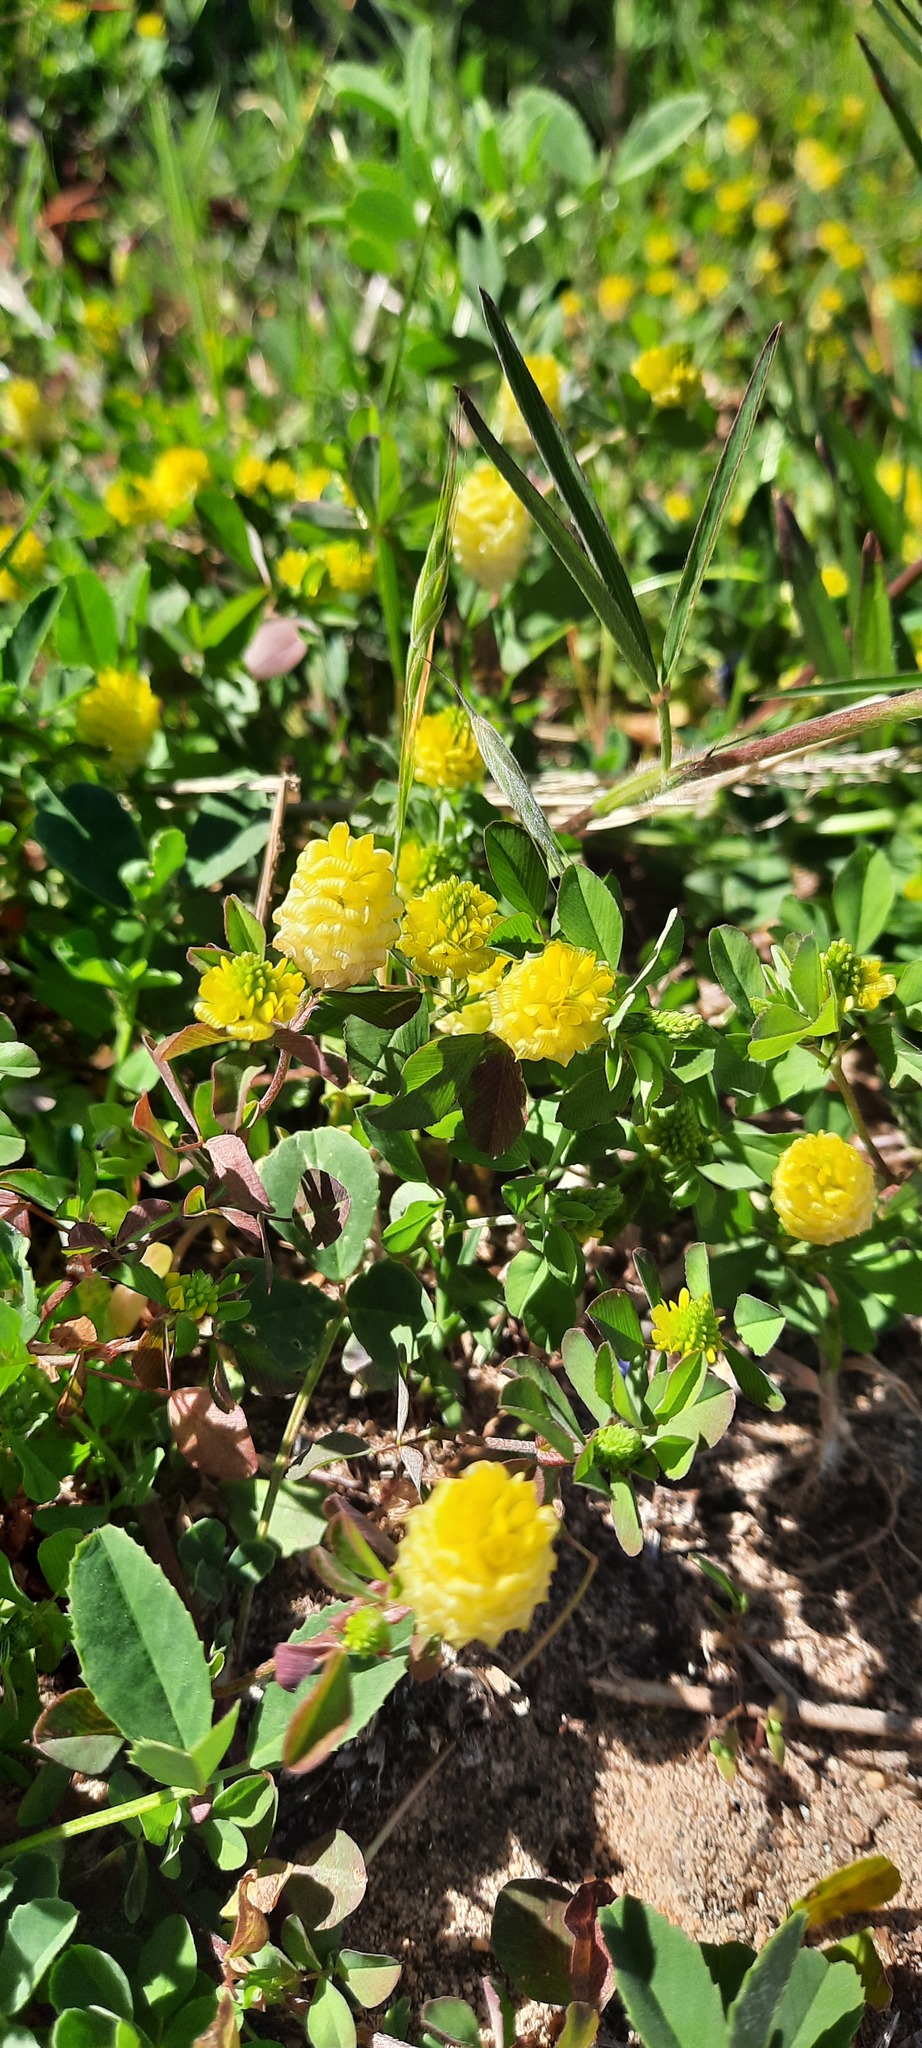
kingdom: Plantae
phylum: Tracheophyta
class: Magnoliopsida
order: Fabales
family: Fabaceae
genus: Trifolium
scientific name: Trifolium campestre
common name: Field clover
